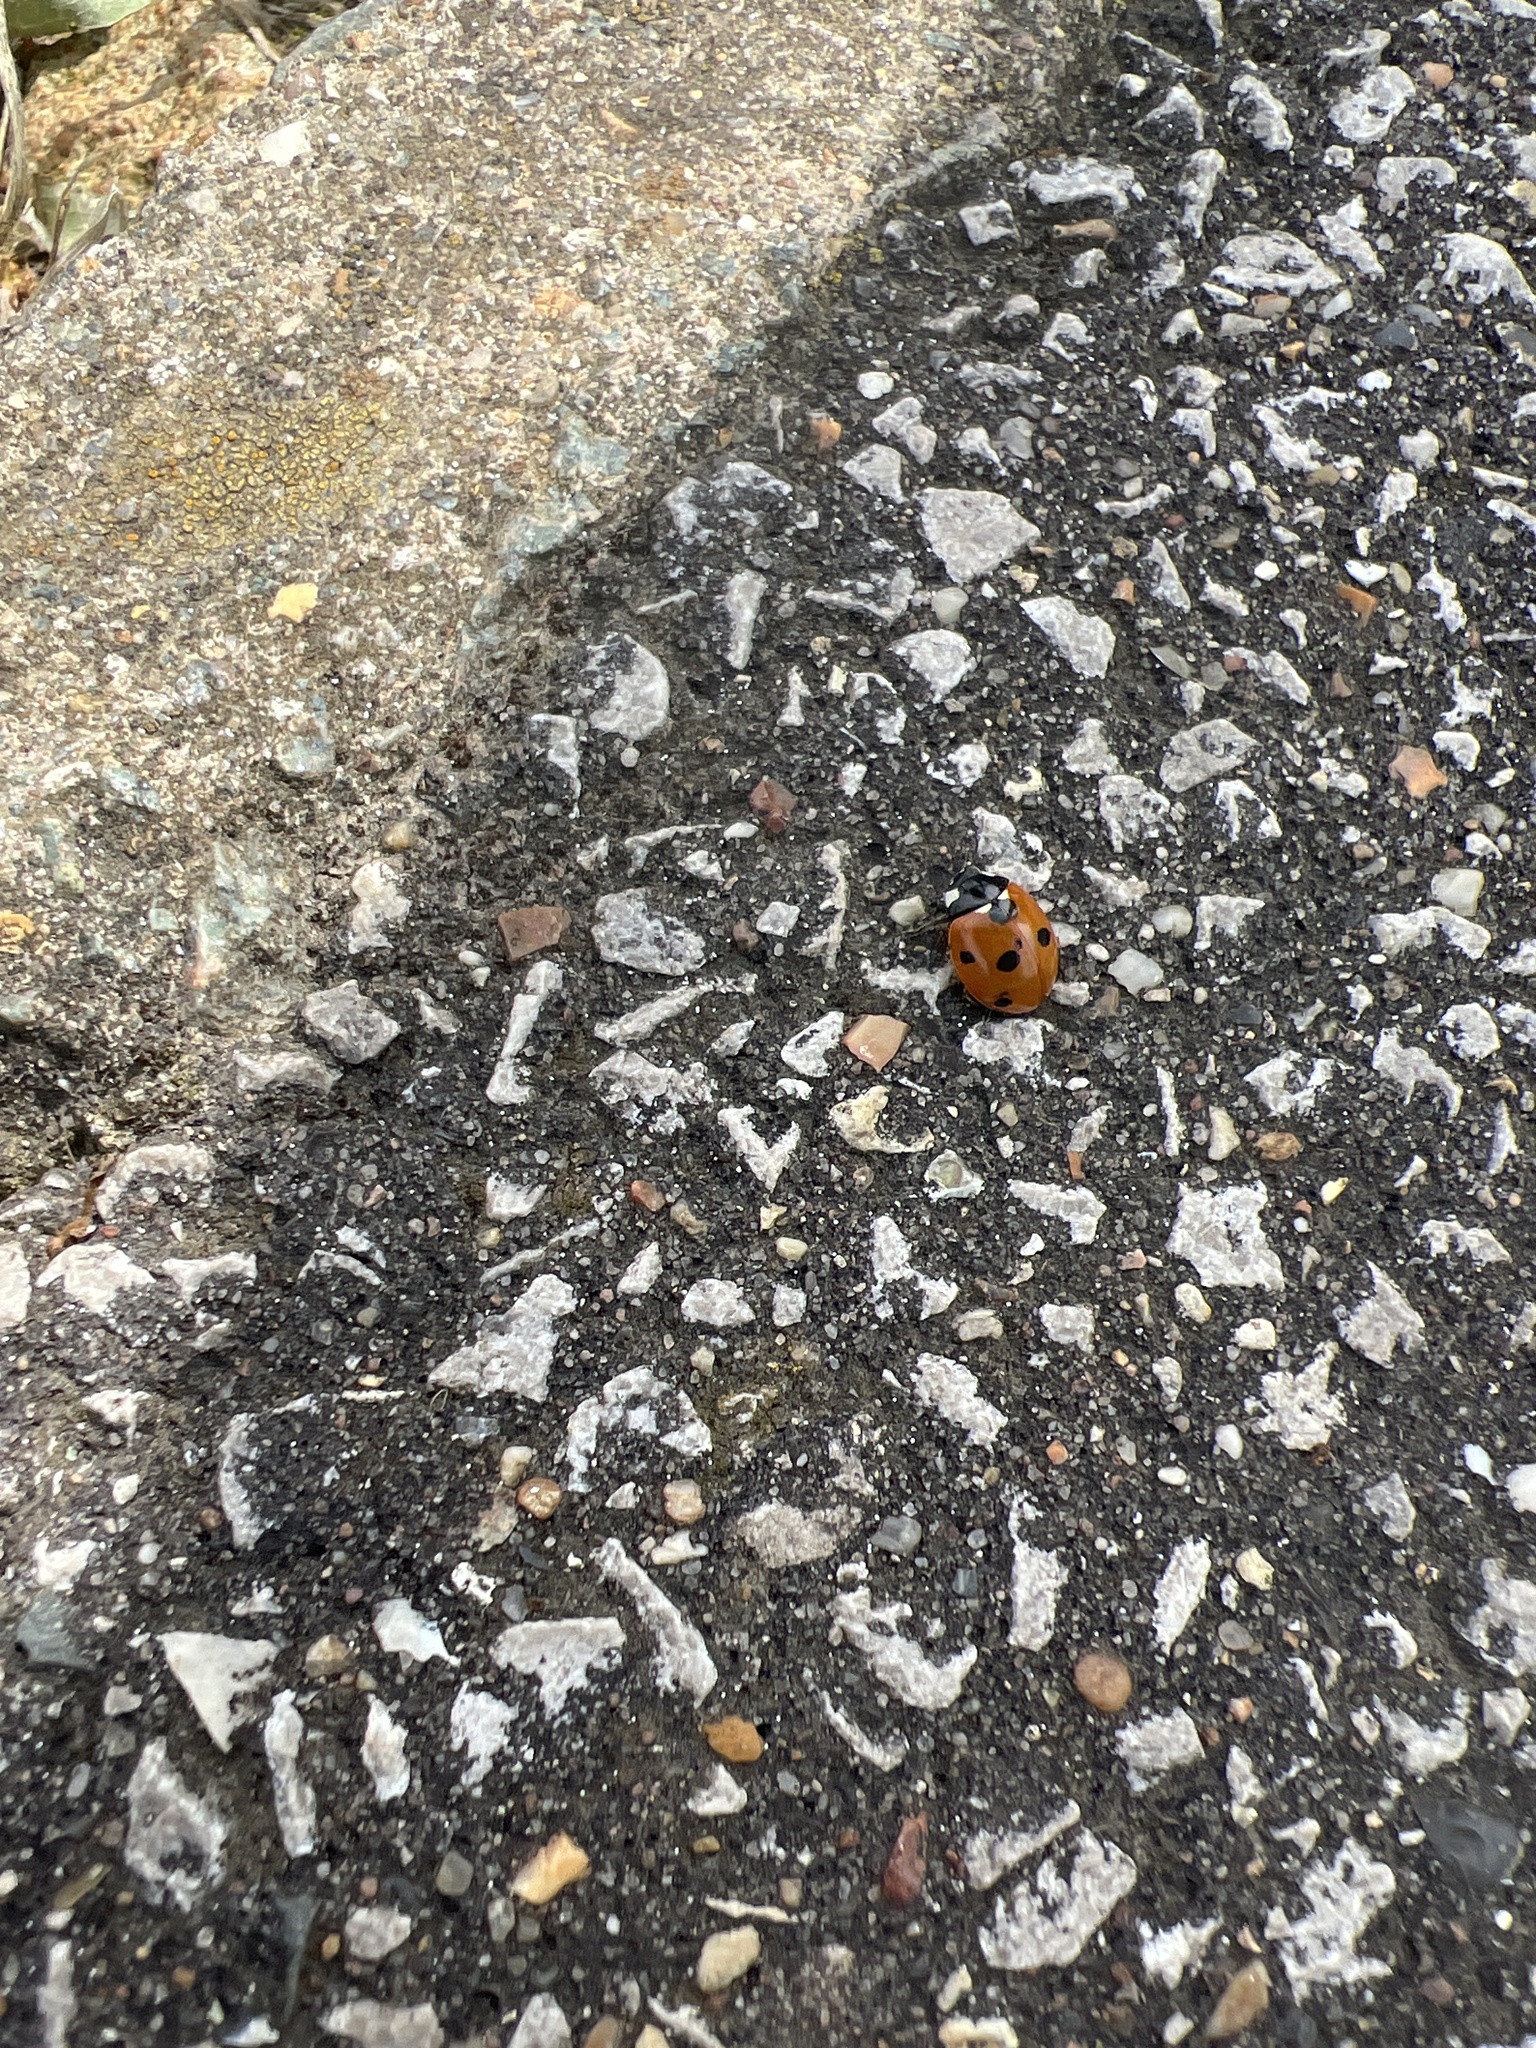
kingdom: Animalia
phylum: Arthropoda
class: Insecta
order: Coleoptera
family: Coccinellidae
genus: Coccinella
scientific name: Coccinella septempunctata
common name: Sevenspotted lady beetle
